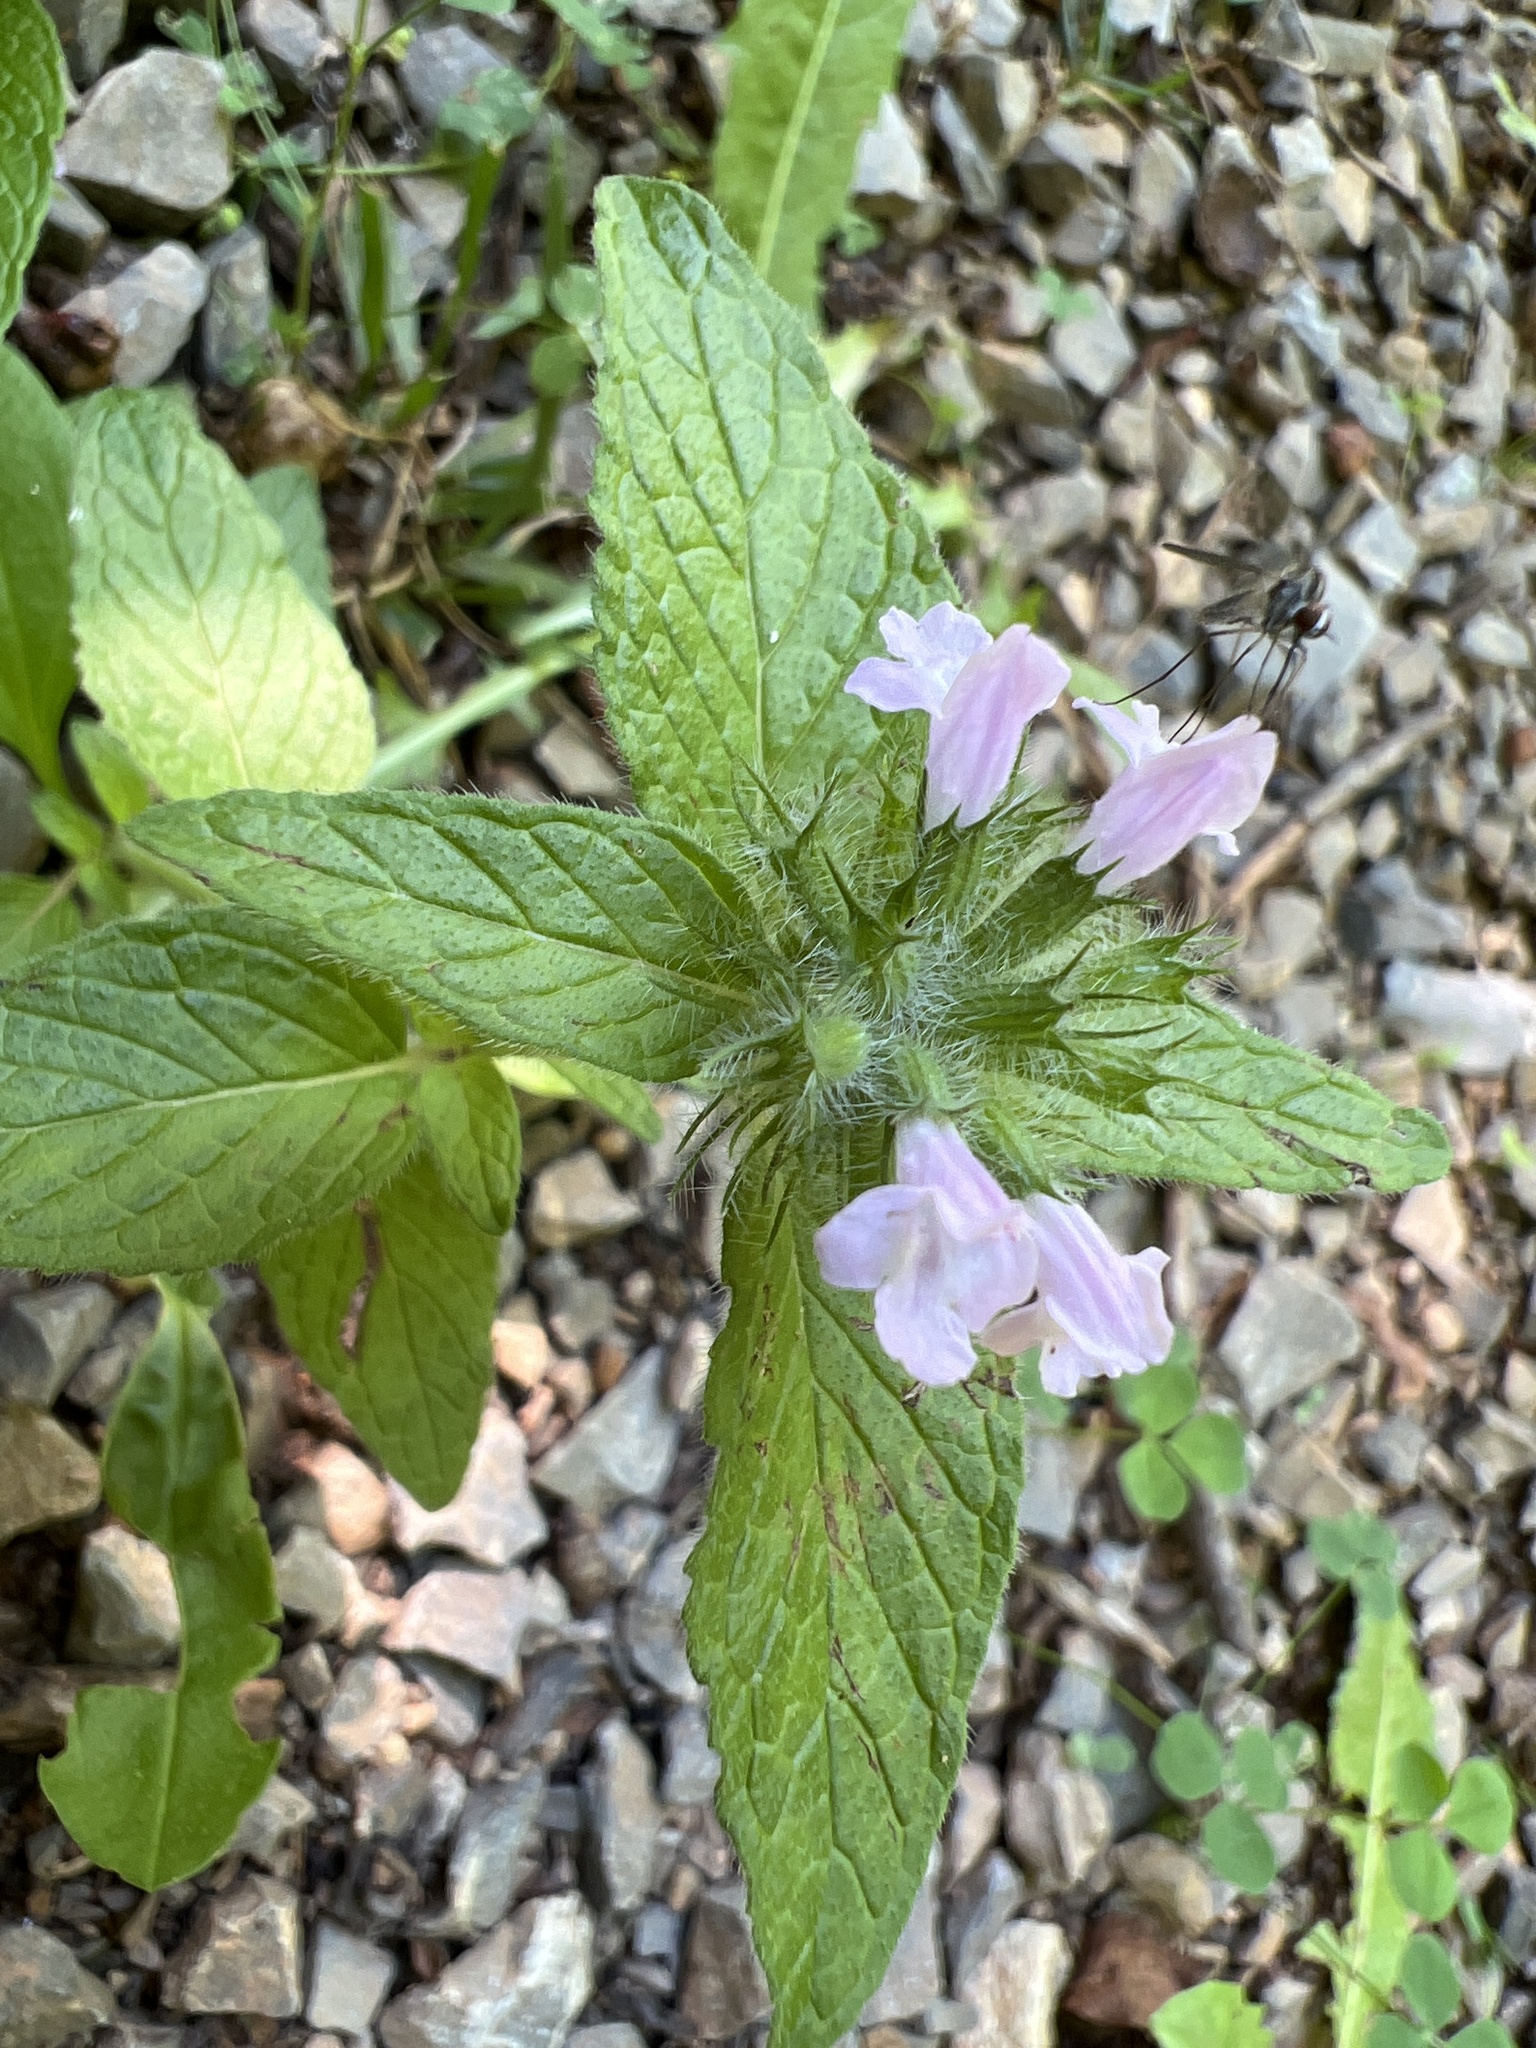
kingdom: Plantae
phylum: Tracheophyta
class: Magnoliopsida
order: Lamiales
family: Lamiaceae
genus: Clinopodium
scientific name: Clinopodium vulgare
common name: Wild basil
